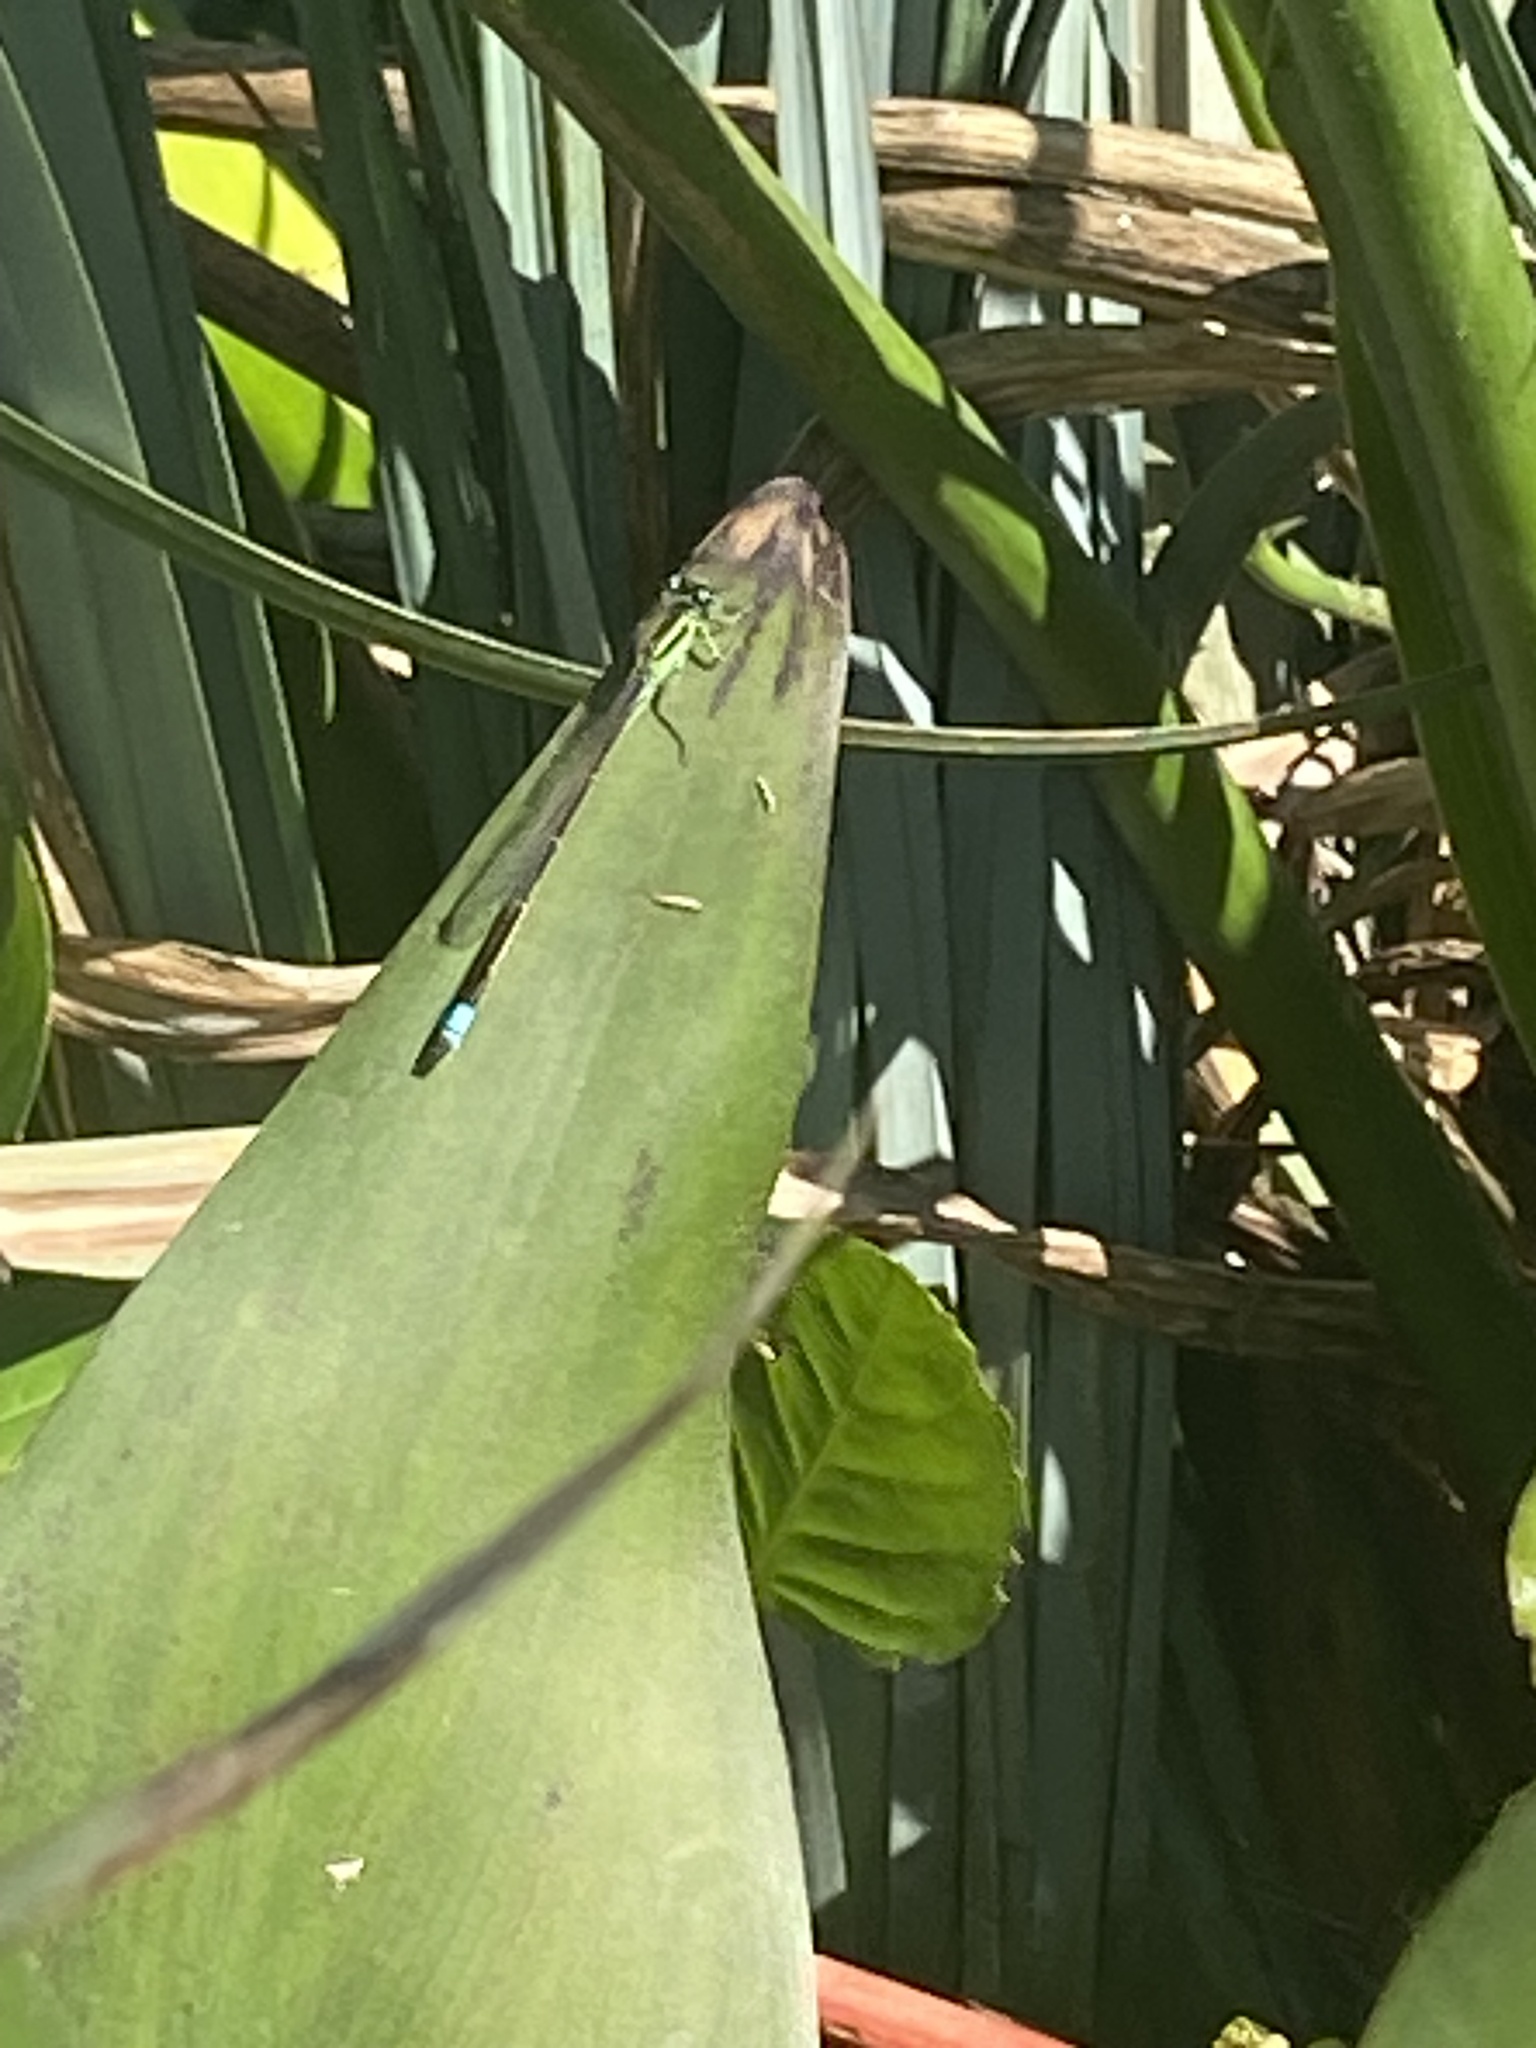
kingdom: Animalia
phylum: Arthropoda
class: Insecta
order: Odonata
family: Coenagrionidae
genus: Ischnura
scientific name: Ischnura ramburii
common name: Rambur's forktail
